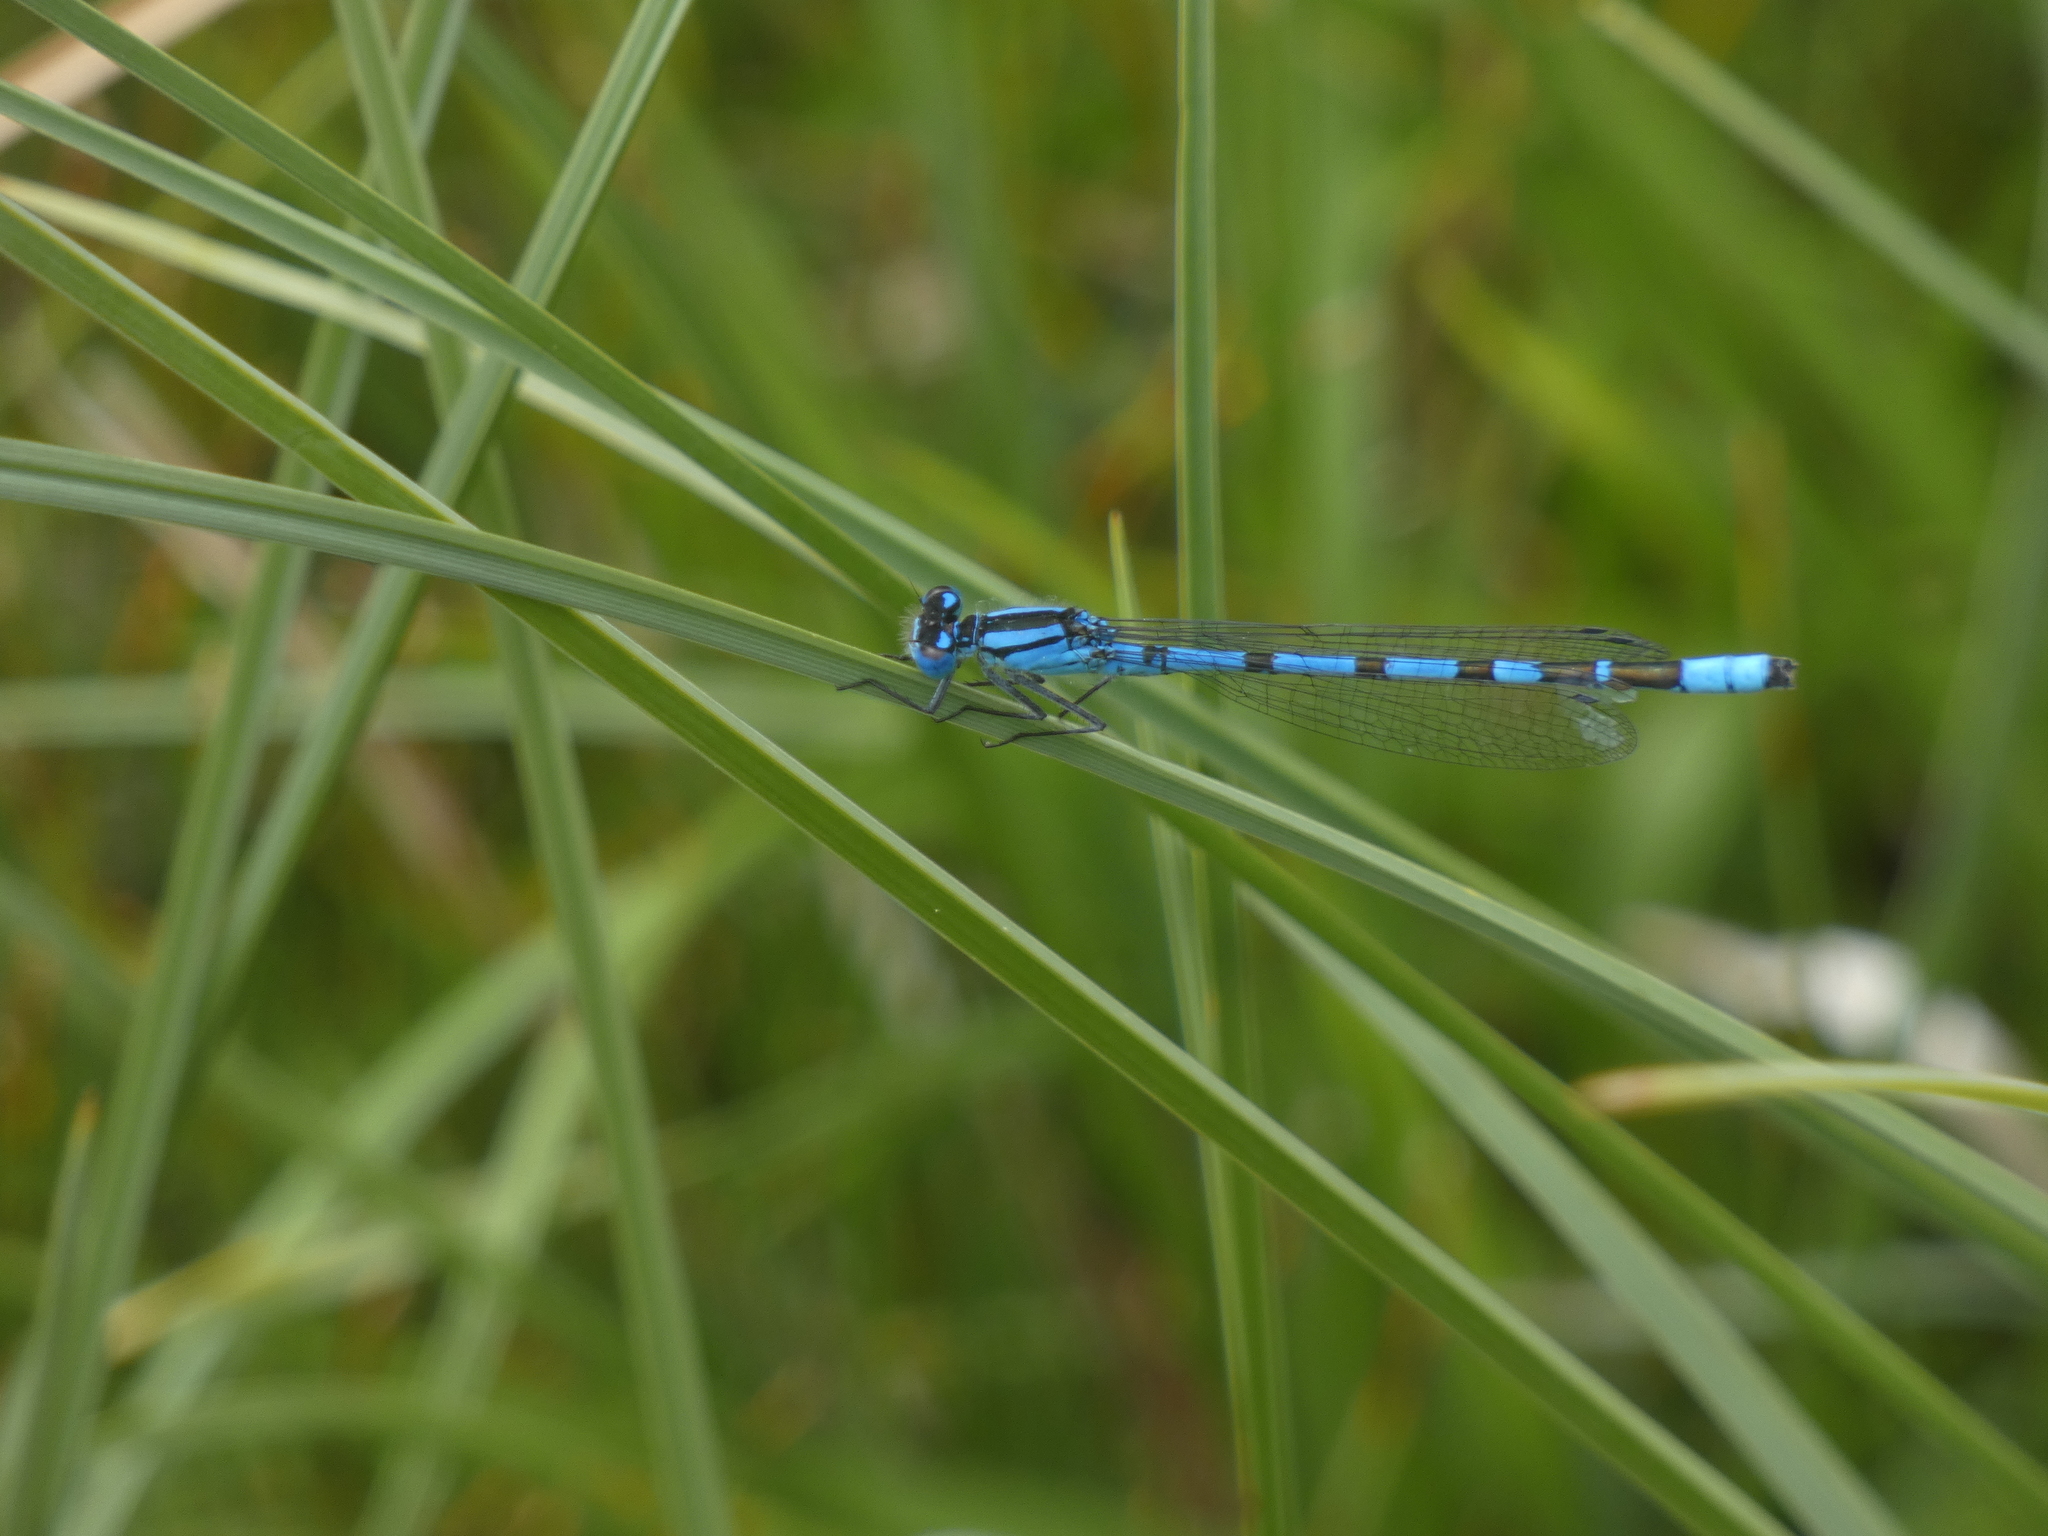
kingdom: Animalia
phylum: Arthropoda
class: Insecta
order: Odonata
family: Coenagrionidae
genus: Enallagma
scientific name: Enallagma cyathigerum
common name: Common blue damselfly
